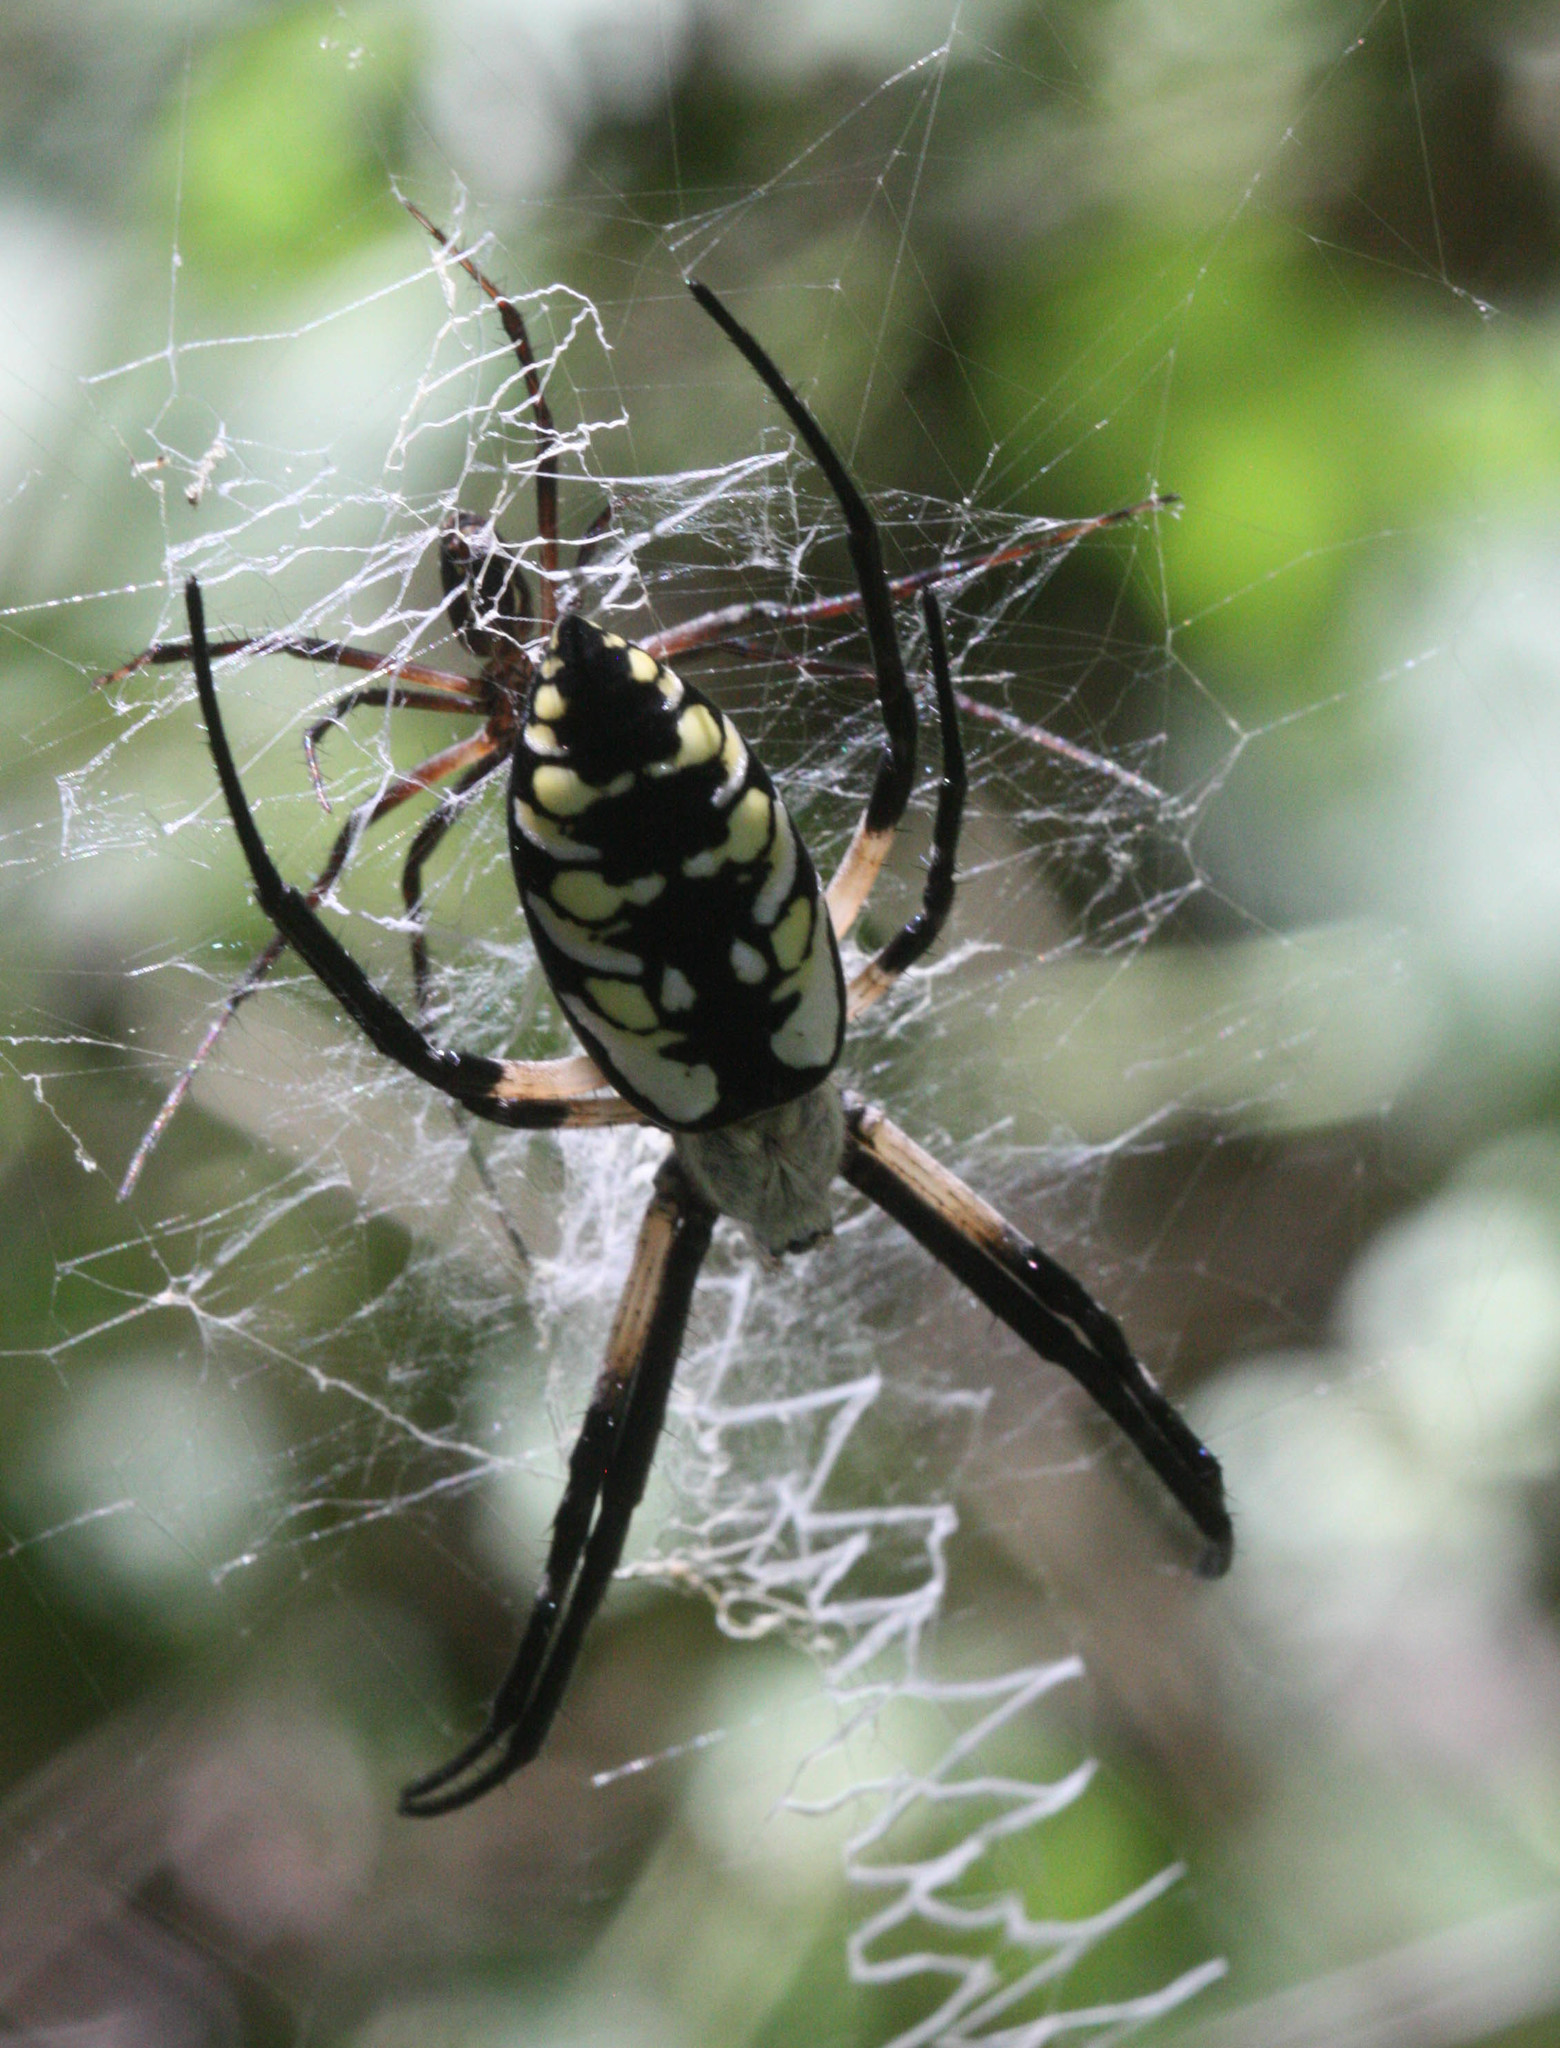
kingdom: Animalia
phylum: Arthropoda
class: Arachnida
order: Araneae
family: Araneidae
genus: Argiope
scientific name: Argiope aurantia
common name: Orb weavers
